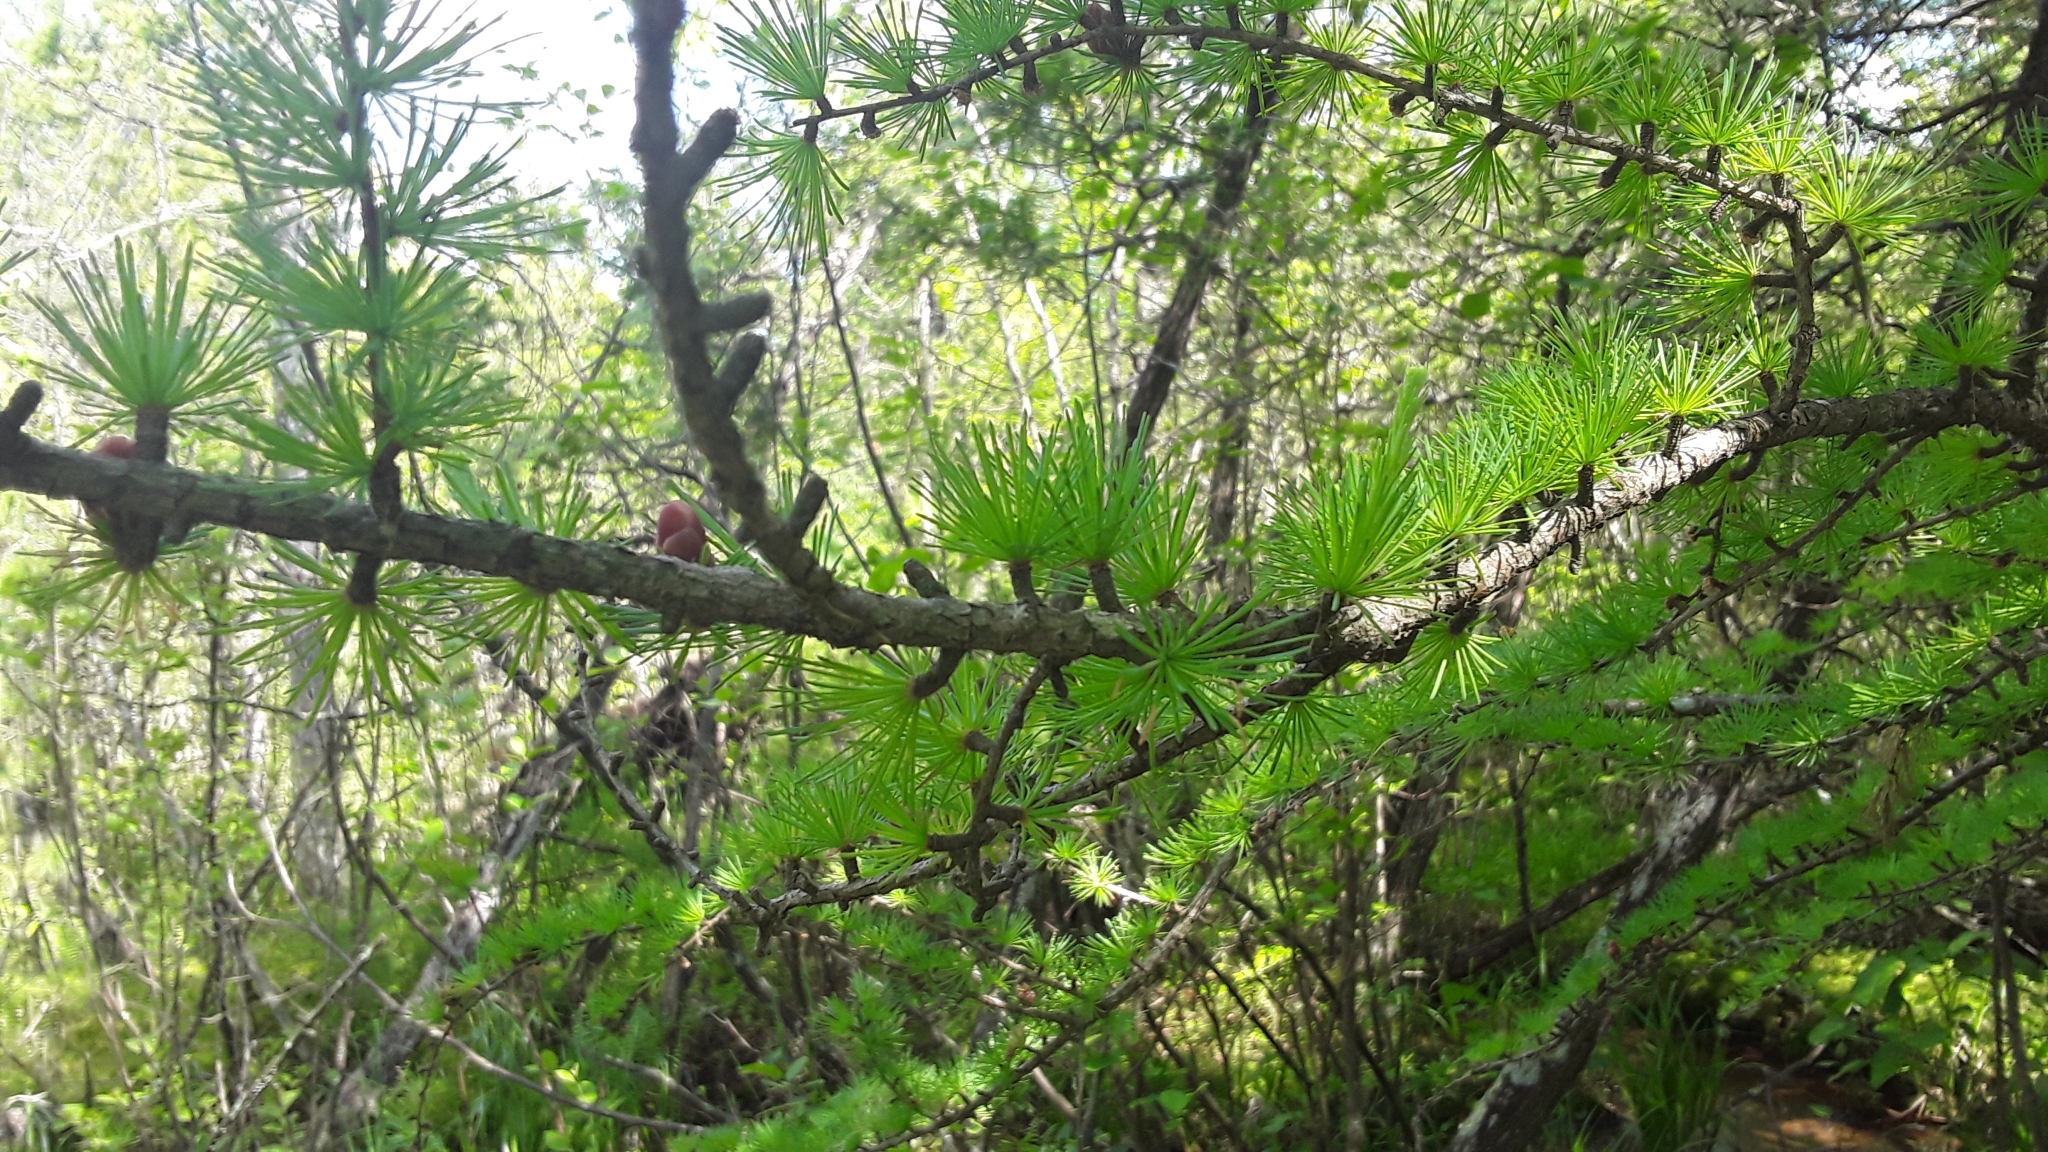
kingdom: Plantae
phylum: Tracheophyta
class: Pinopsida
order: Pinales
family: Pinaceae
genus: Larix
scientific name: Larix laricina
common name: American larch
